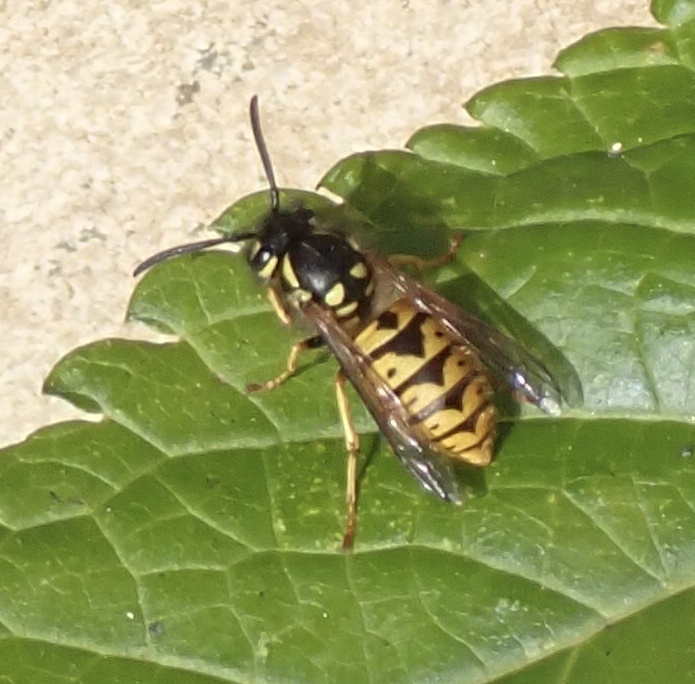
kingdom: Animalia
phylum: Arthropoda
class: Insecta
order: Hymenoptera
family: Vespidae
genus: Vespula
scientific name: Vespula germanica
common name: German wasp
